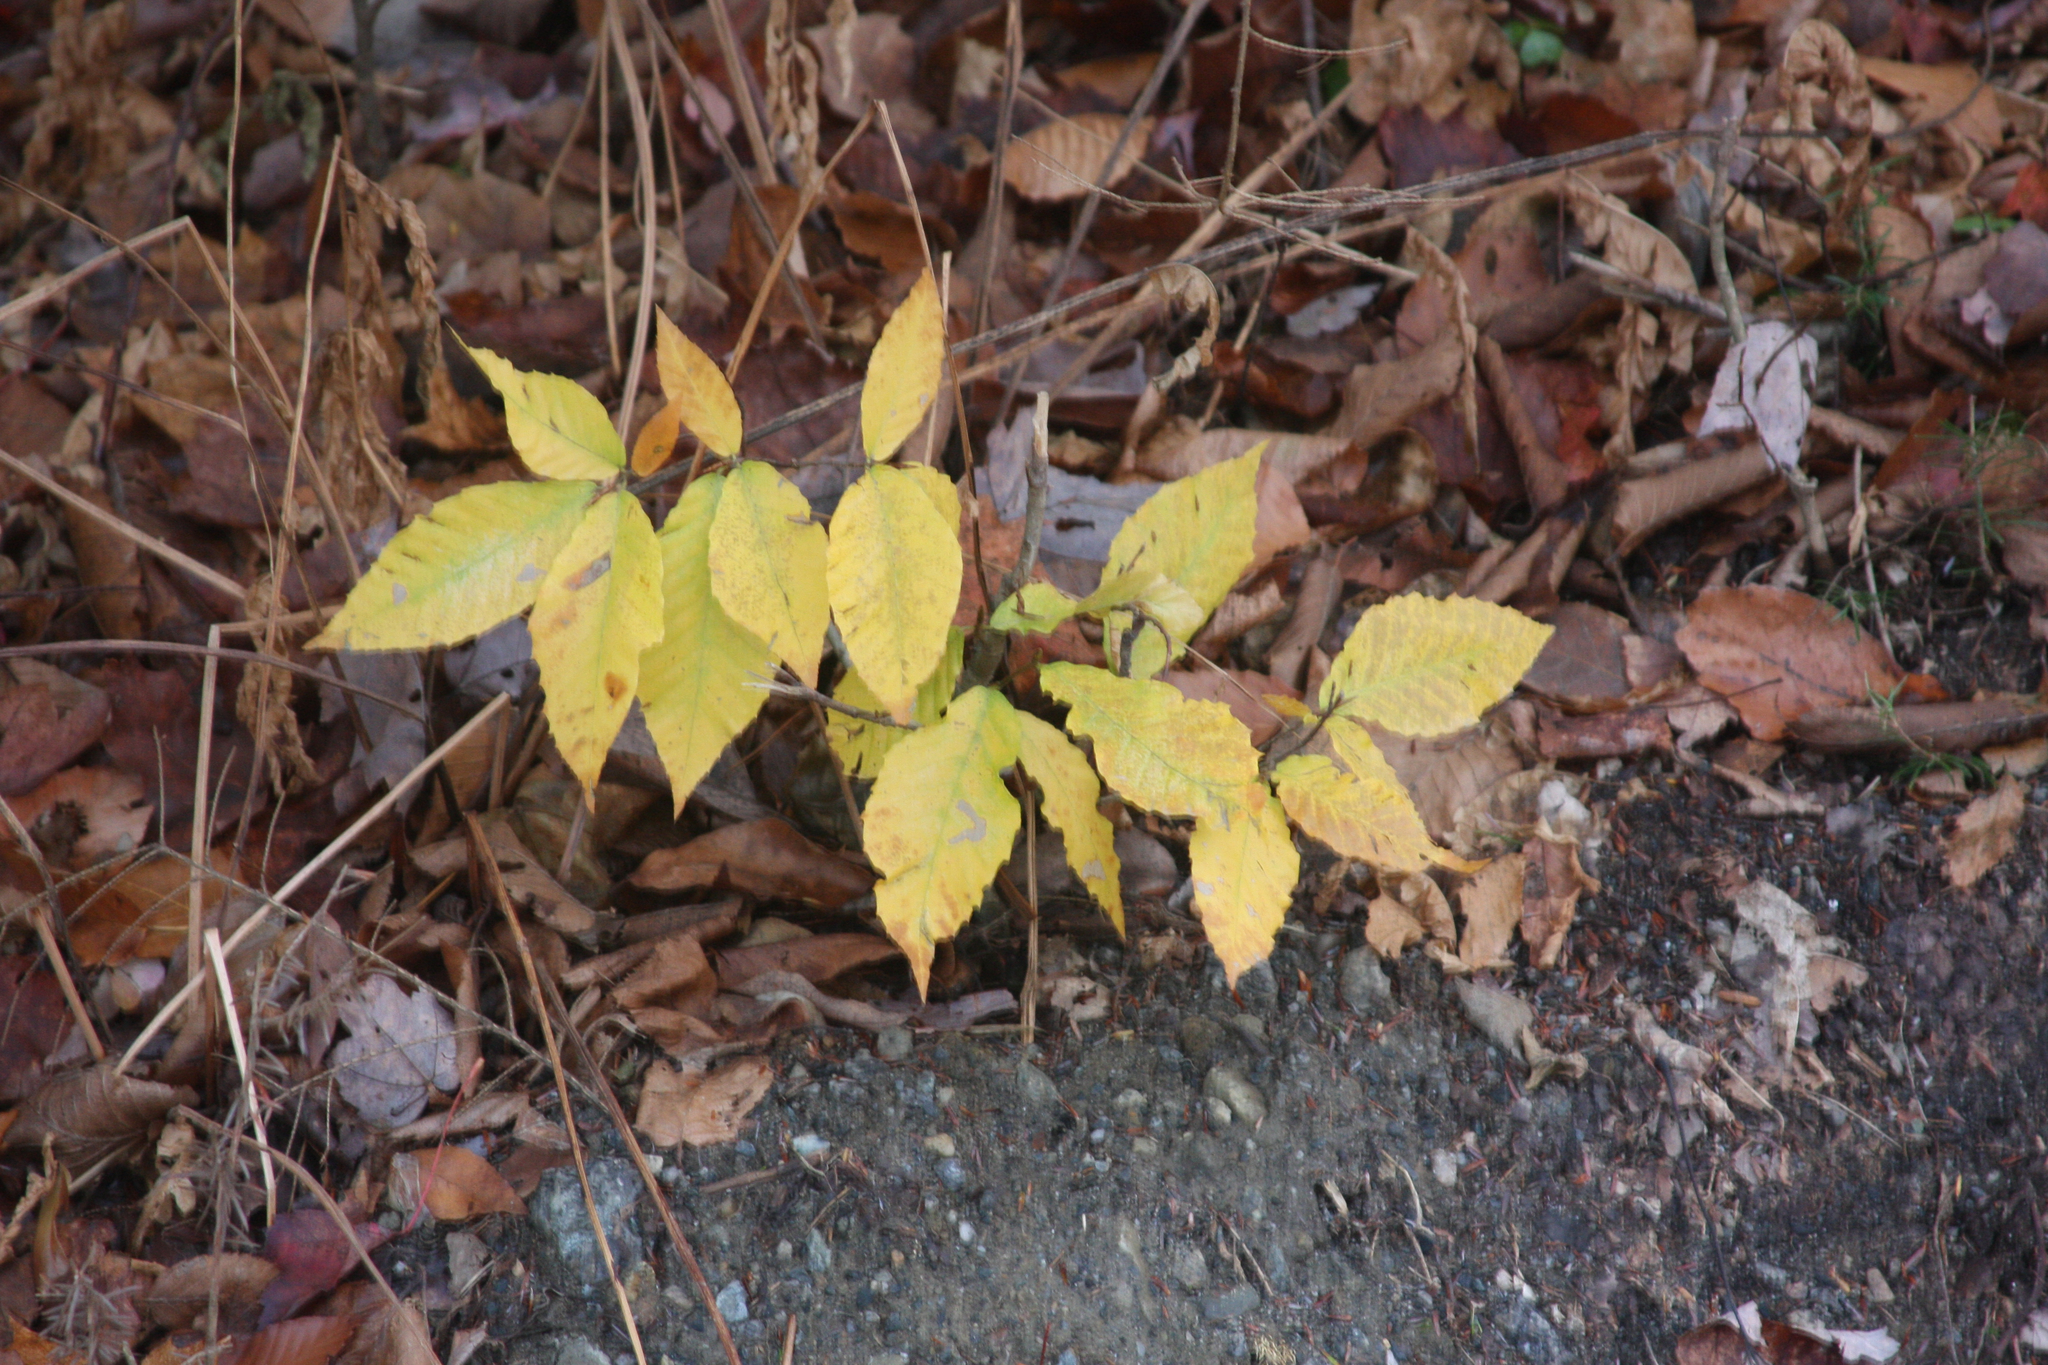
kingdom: Plantae
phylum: Tracheophyta
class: Magnoliopsida
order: Fagales
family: Fagaceae
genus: Fagus
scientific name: Fagus grandifolia
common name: American beech
